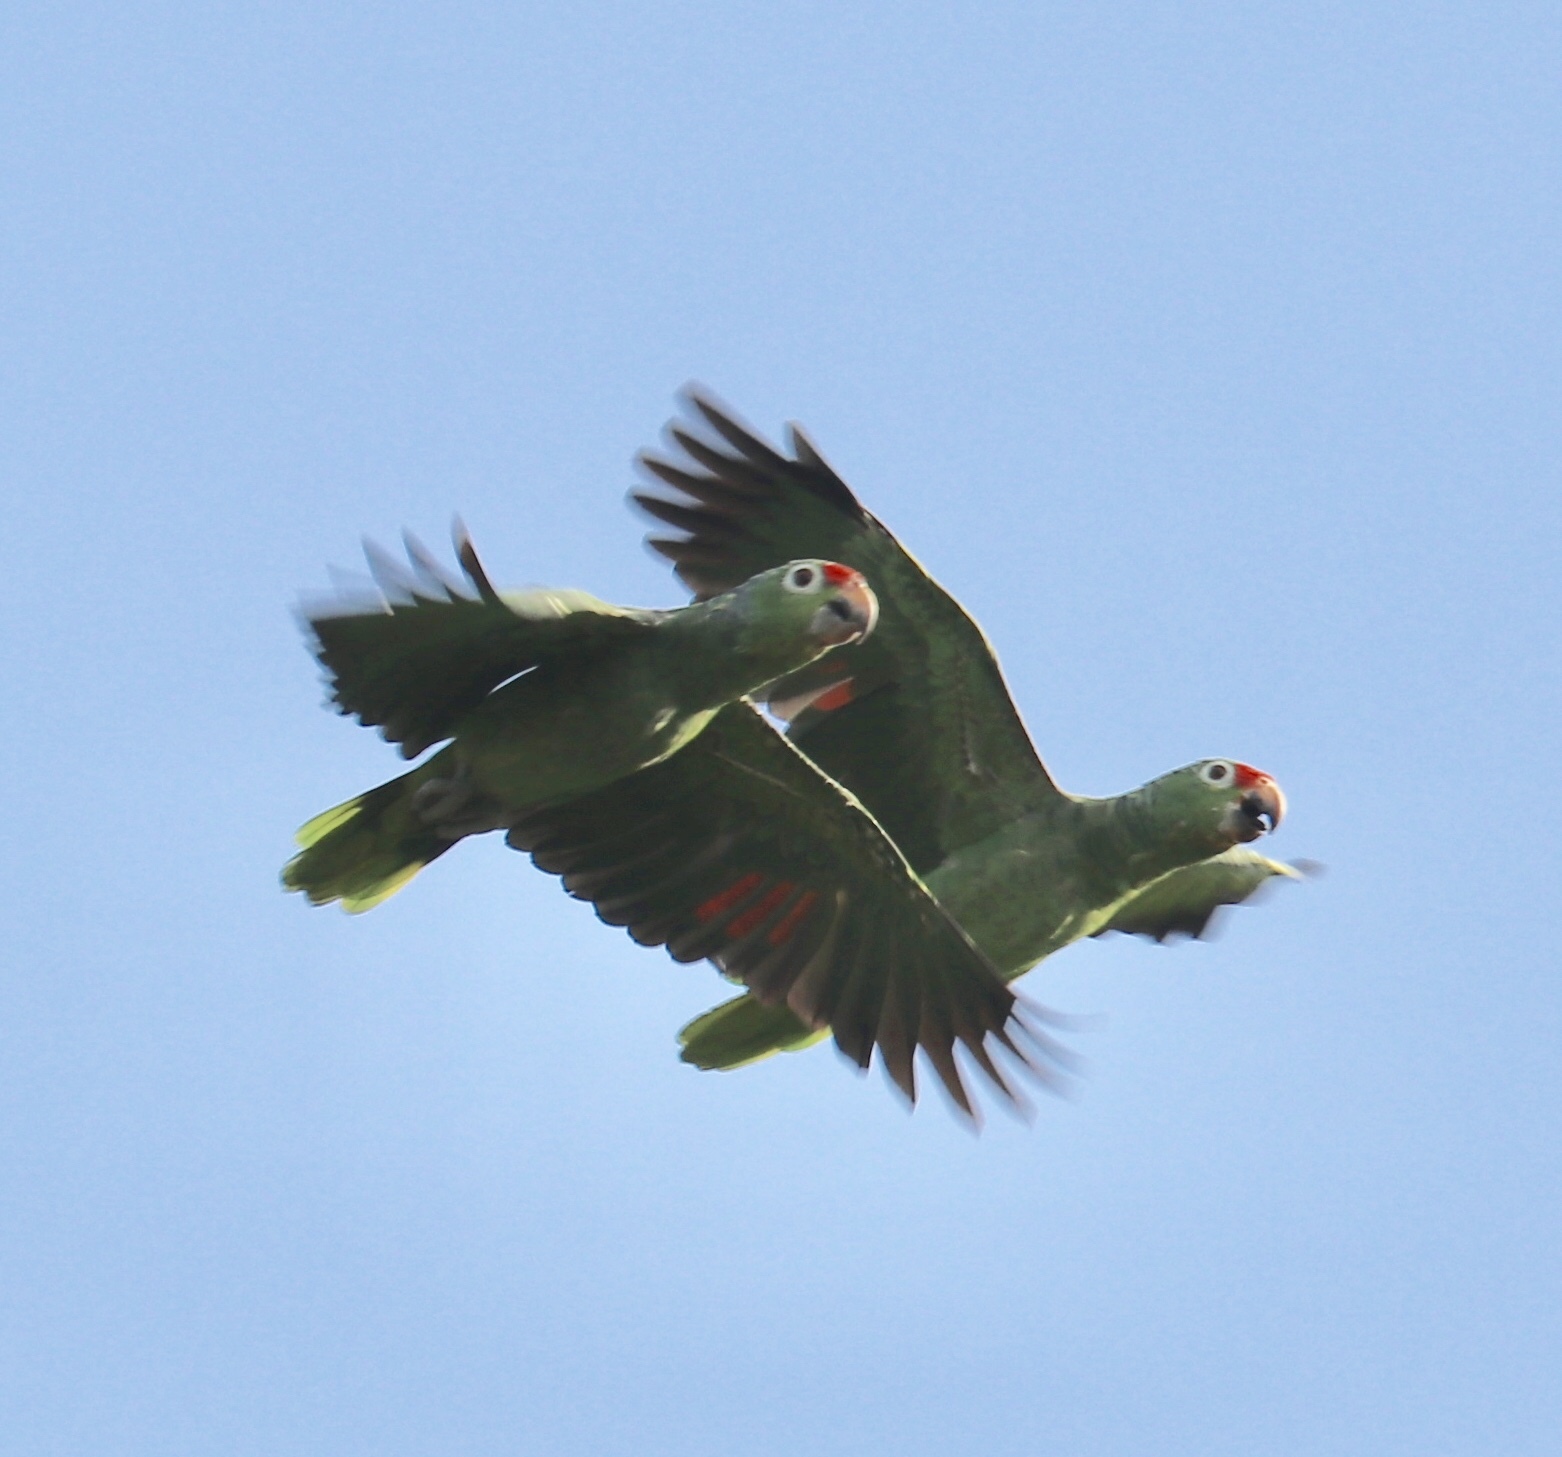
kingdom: Animalia
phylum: Chordata
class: Aves
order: Psittaciformes
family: Psittacidae
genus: Amazona
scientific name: Amazona autumnalis
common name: Red-lored amazon
